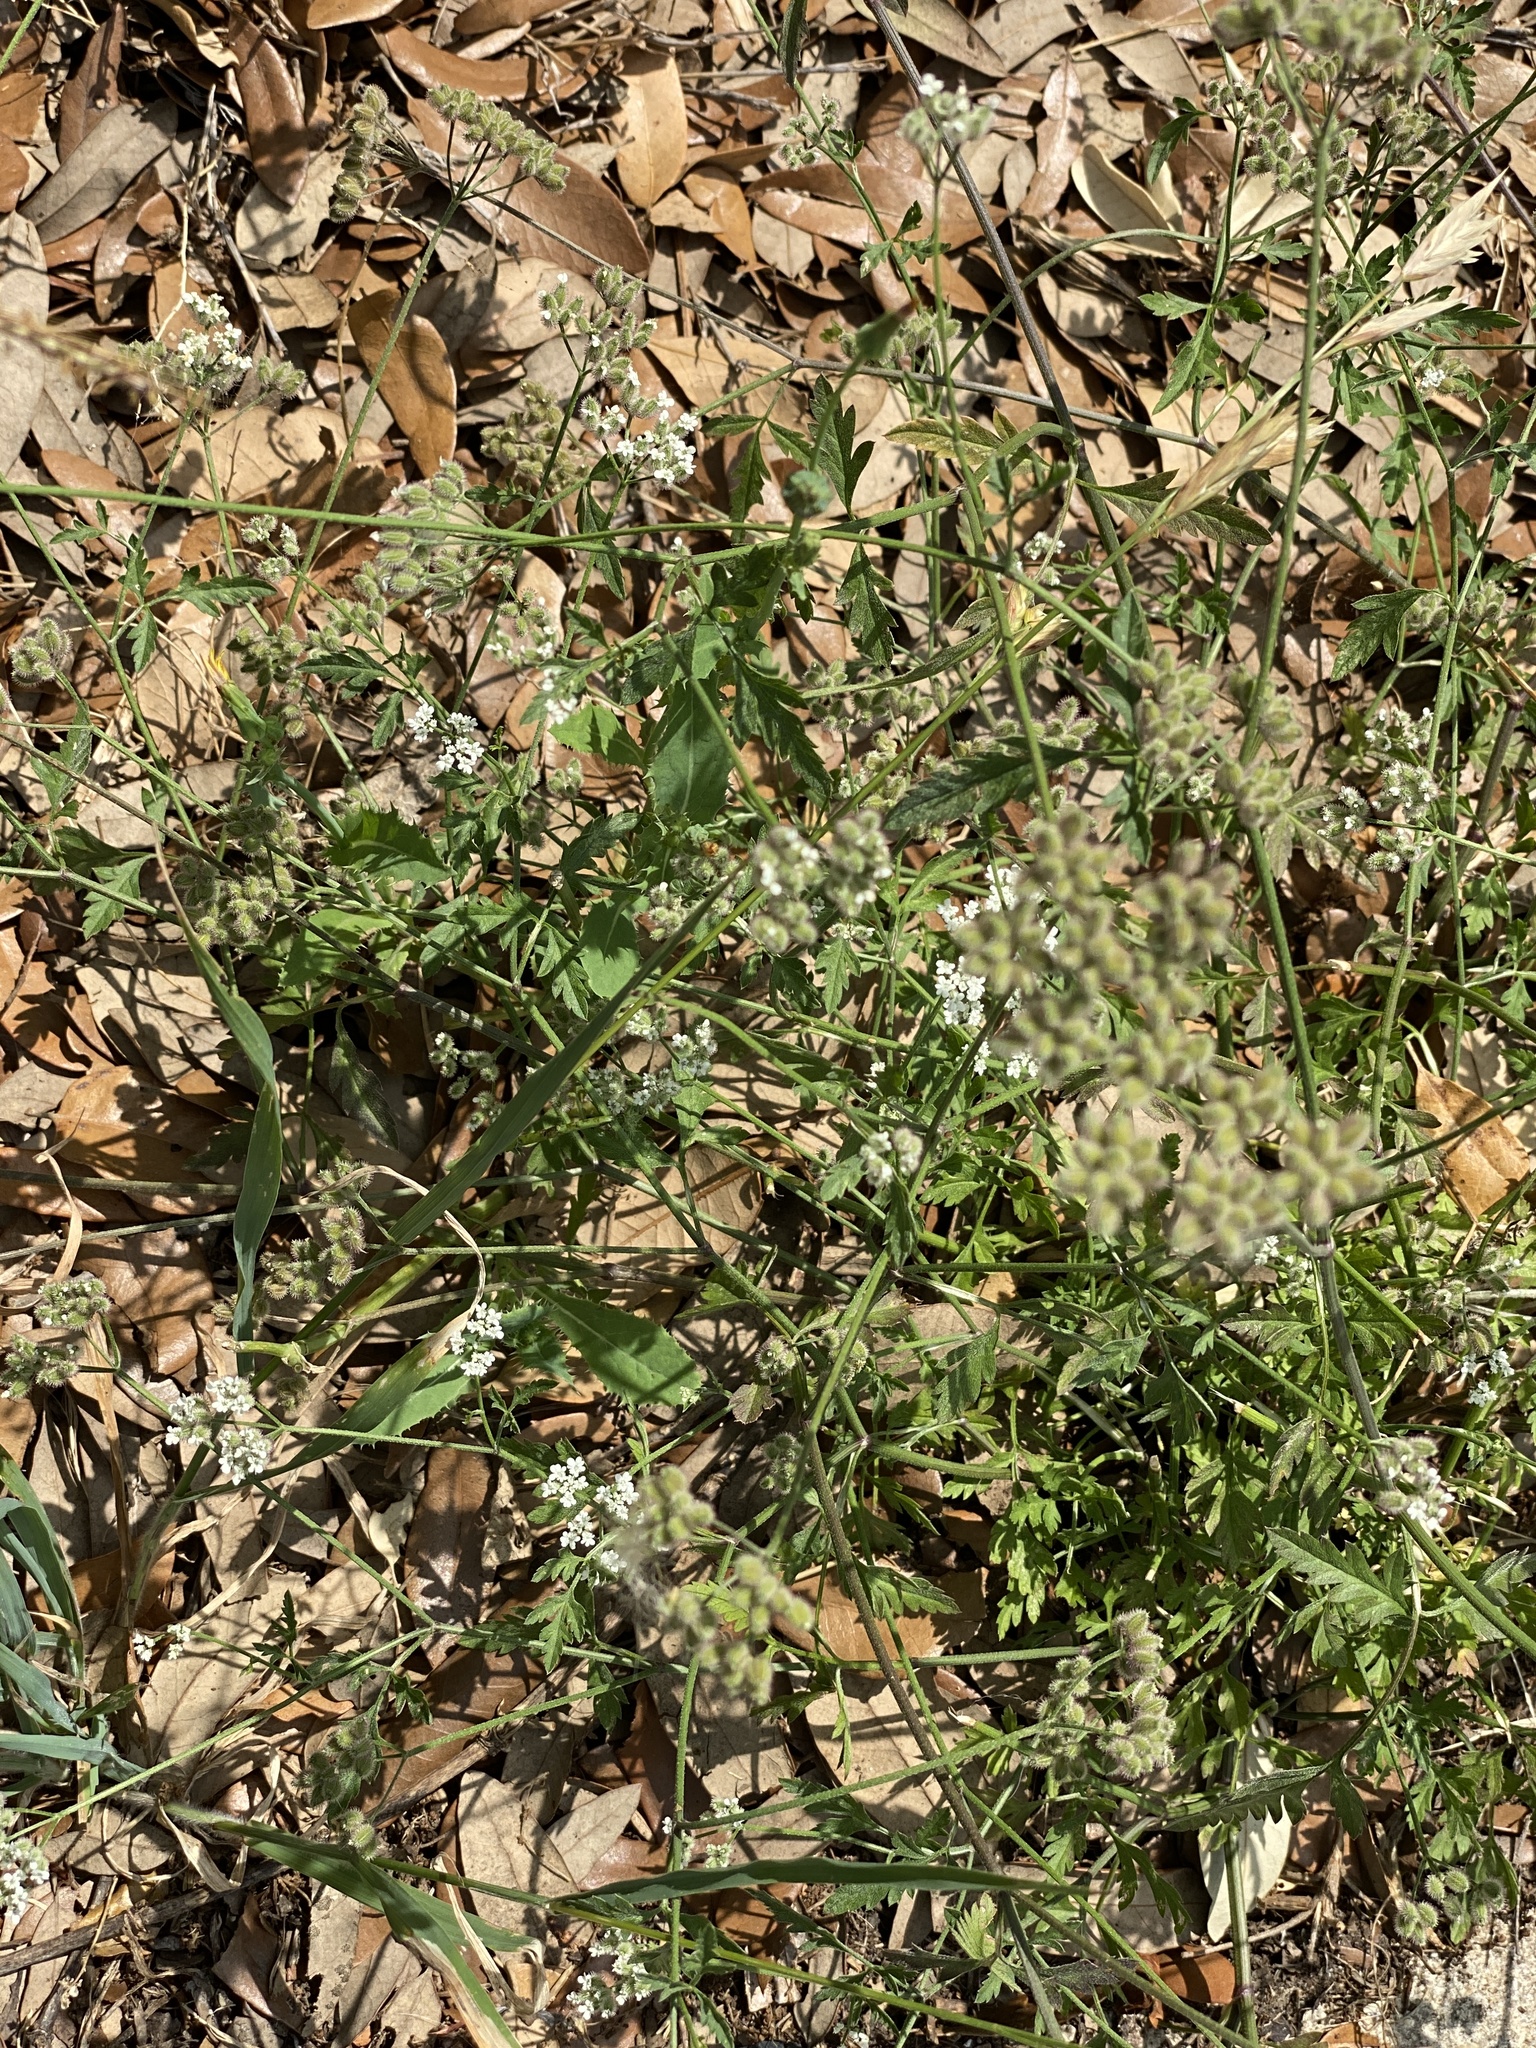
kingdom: Plantae
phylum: Tracheophyta
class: Magnoliopsida
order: Apiales
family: Apiaceae
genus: Torilis
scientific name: Torilis arvensis
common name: Spreading hedge-parsley
